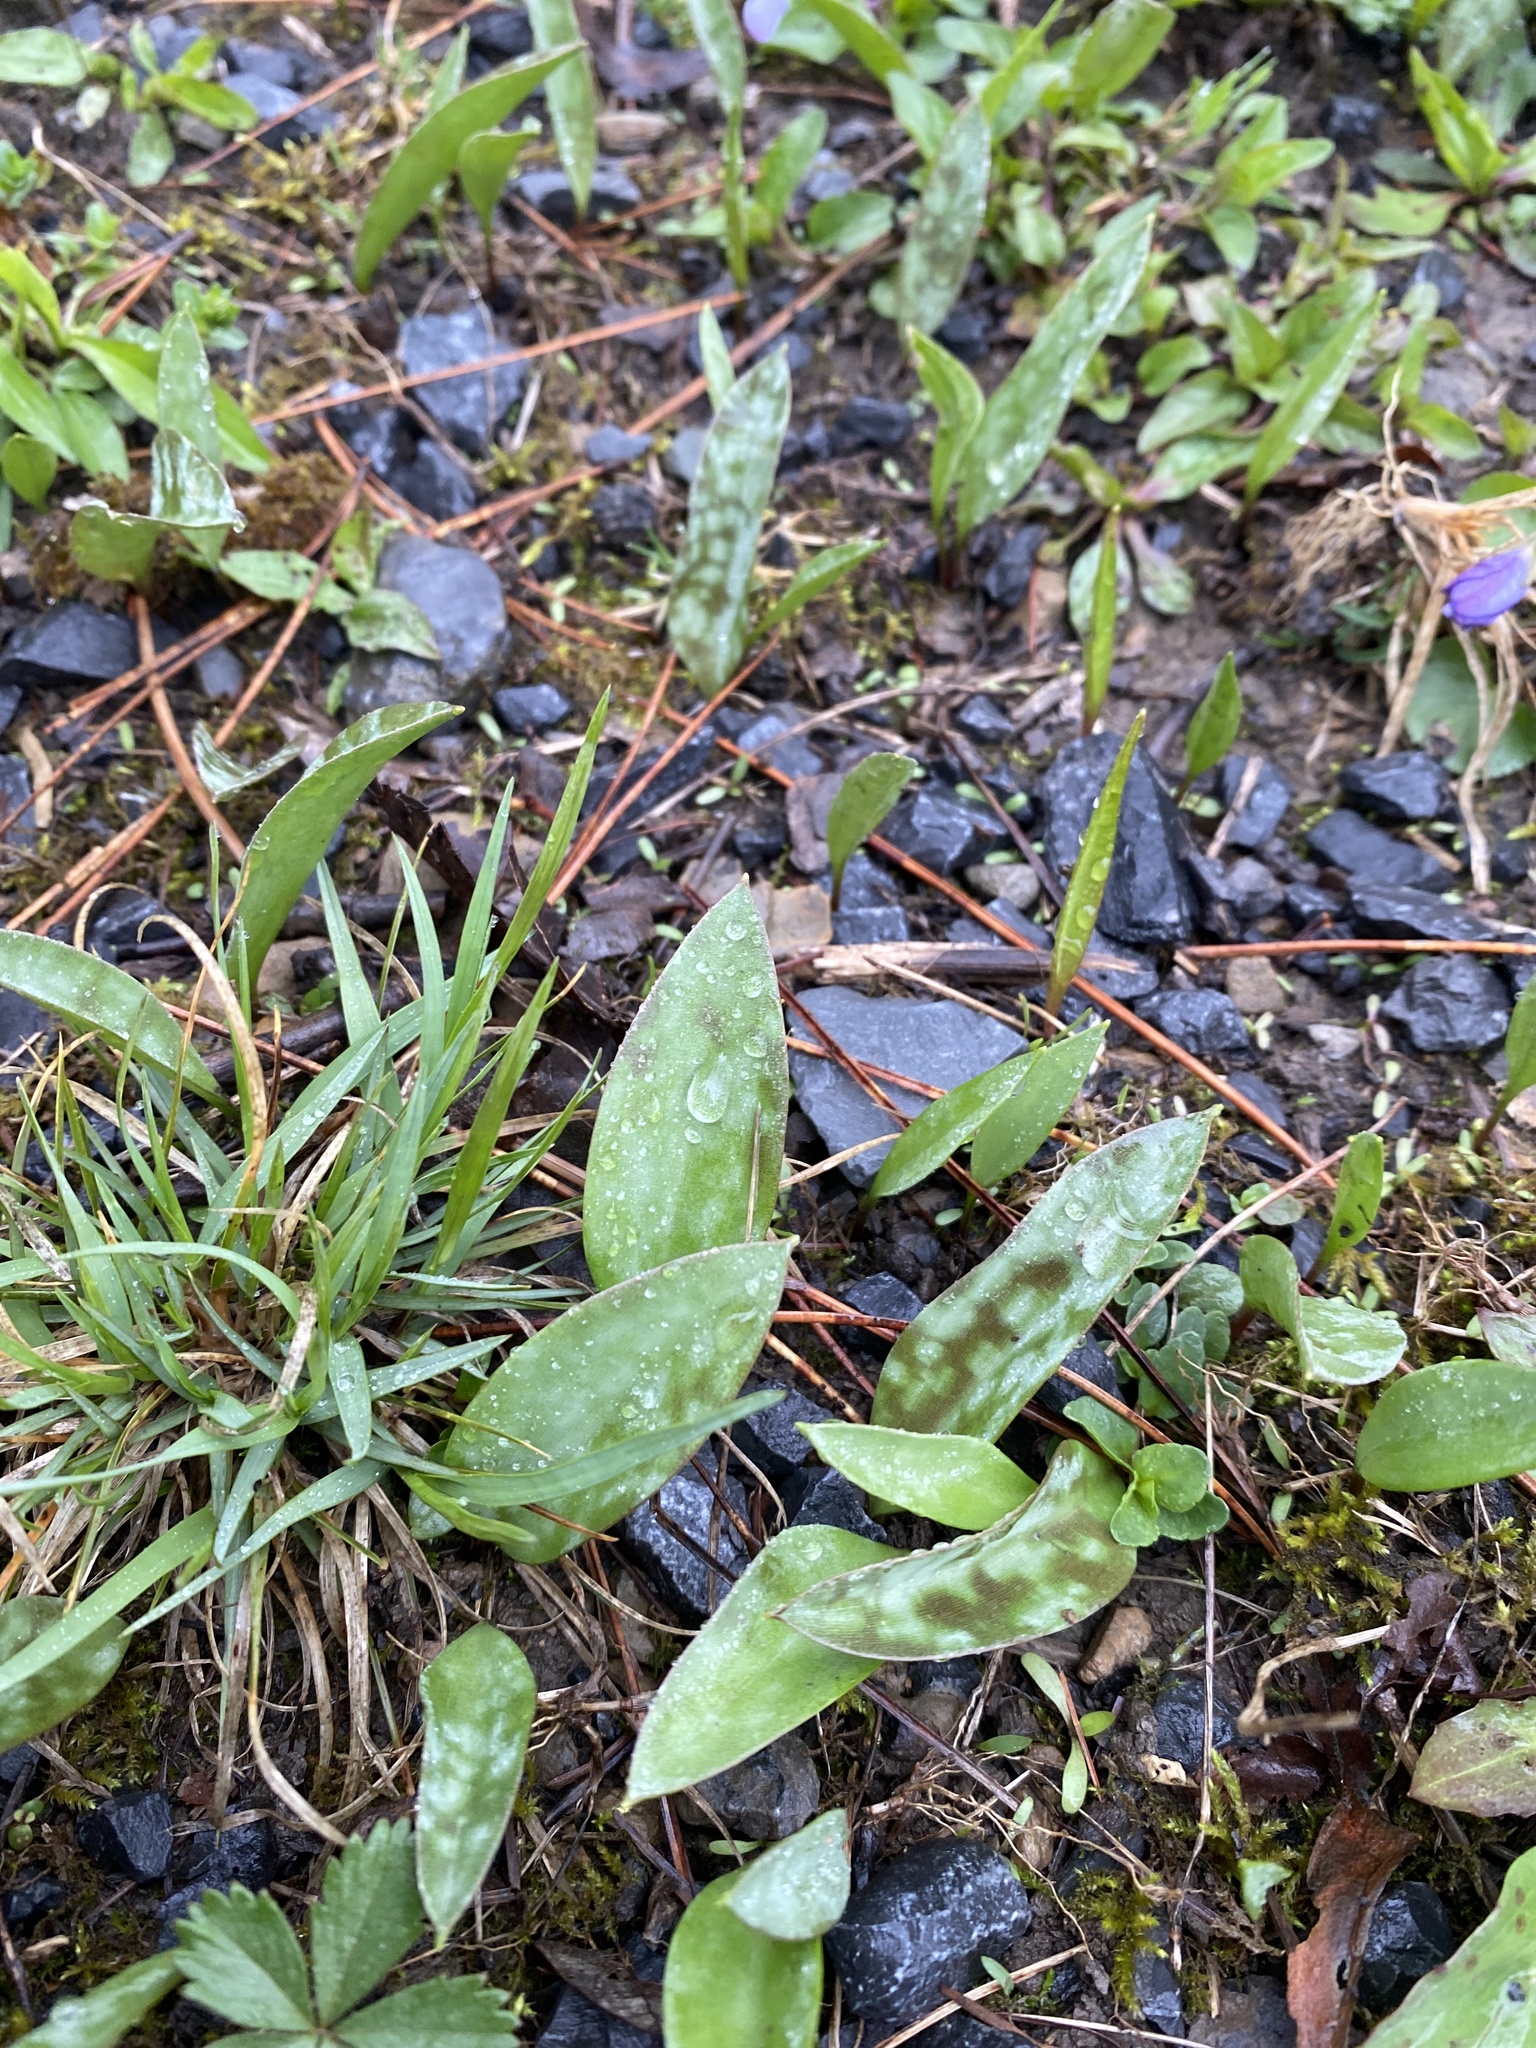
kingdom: Plantae
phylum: Tracheophyta
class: Liliopsida
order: Liliales
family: Liliaceae
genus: Erythronium
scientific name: Erythronium americanum
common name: Yellow adder's-tongue
